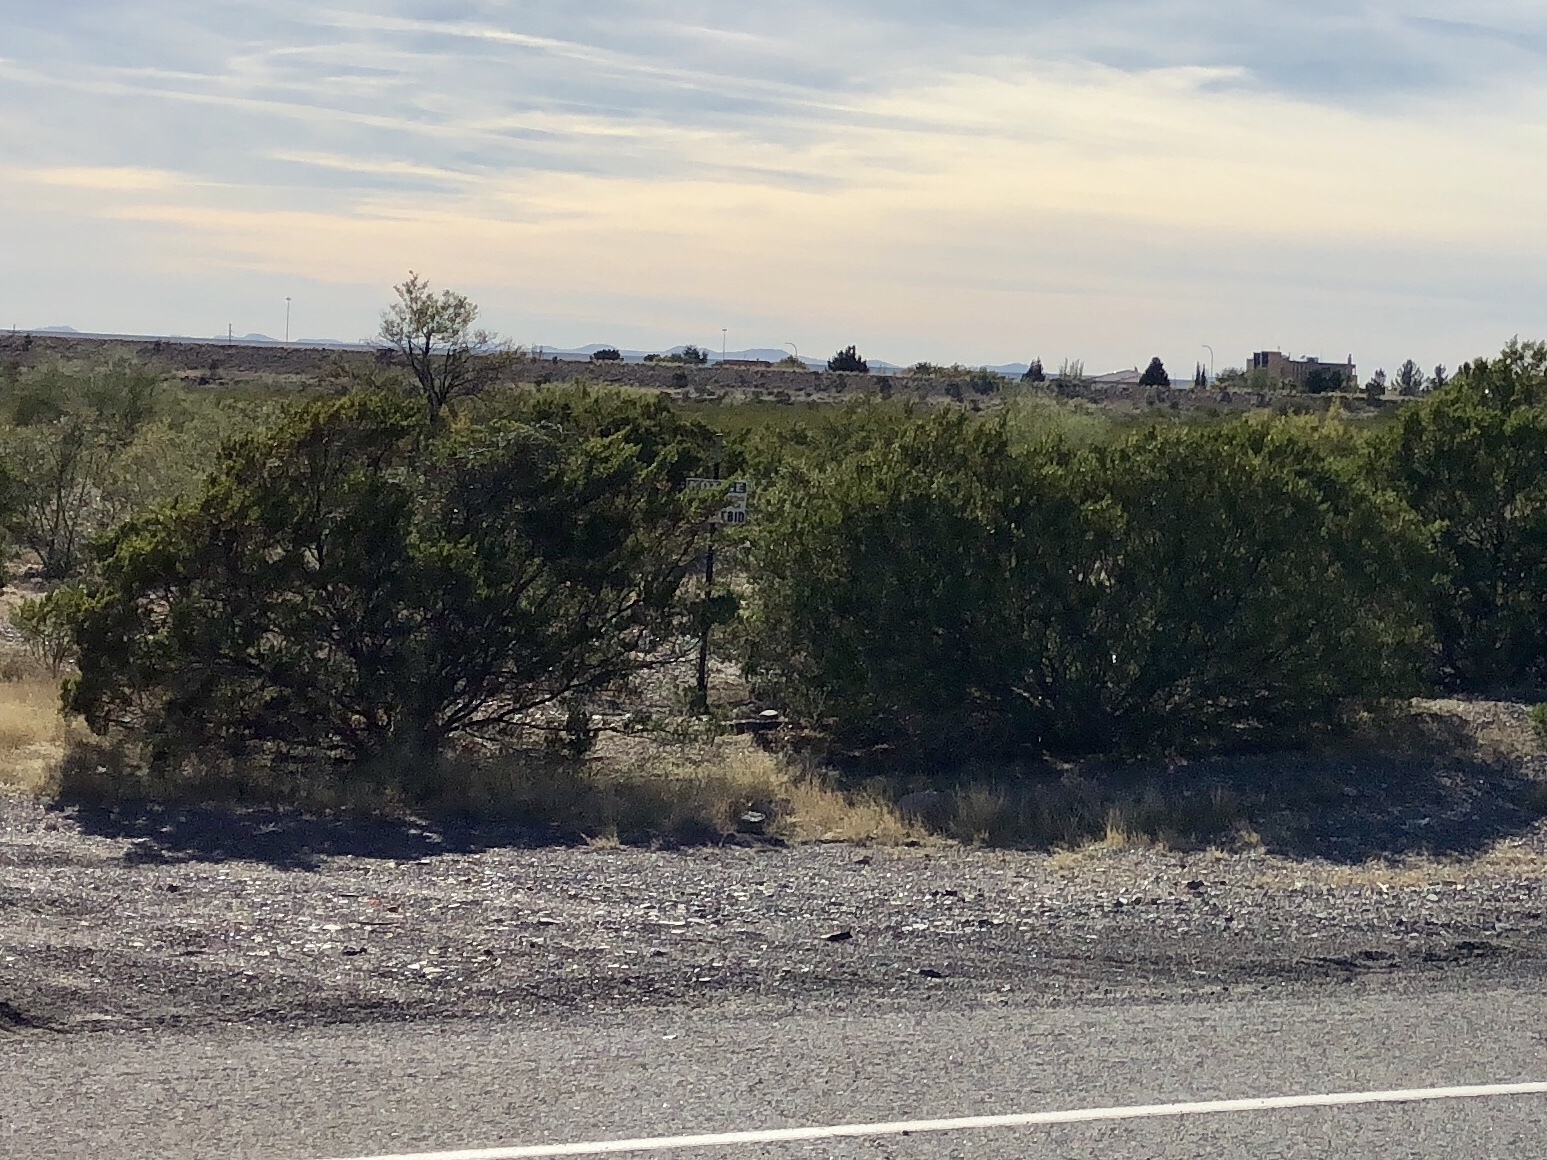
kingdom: Plantae
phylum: Tracheophyta
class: Magnoliopsida
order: Zygophyllales
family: Zygophyllaceae
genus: Larrea
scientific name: Larrea tridentata
